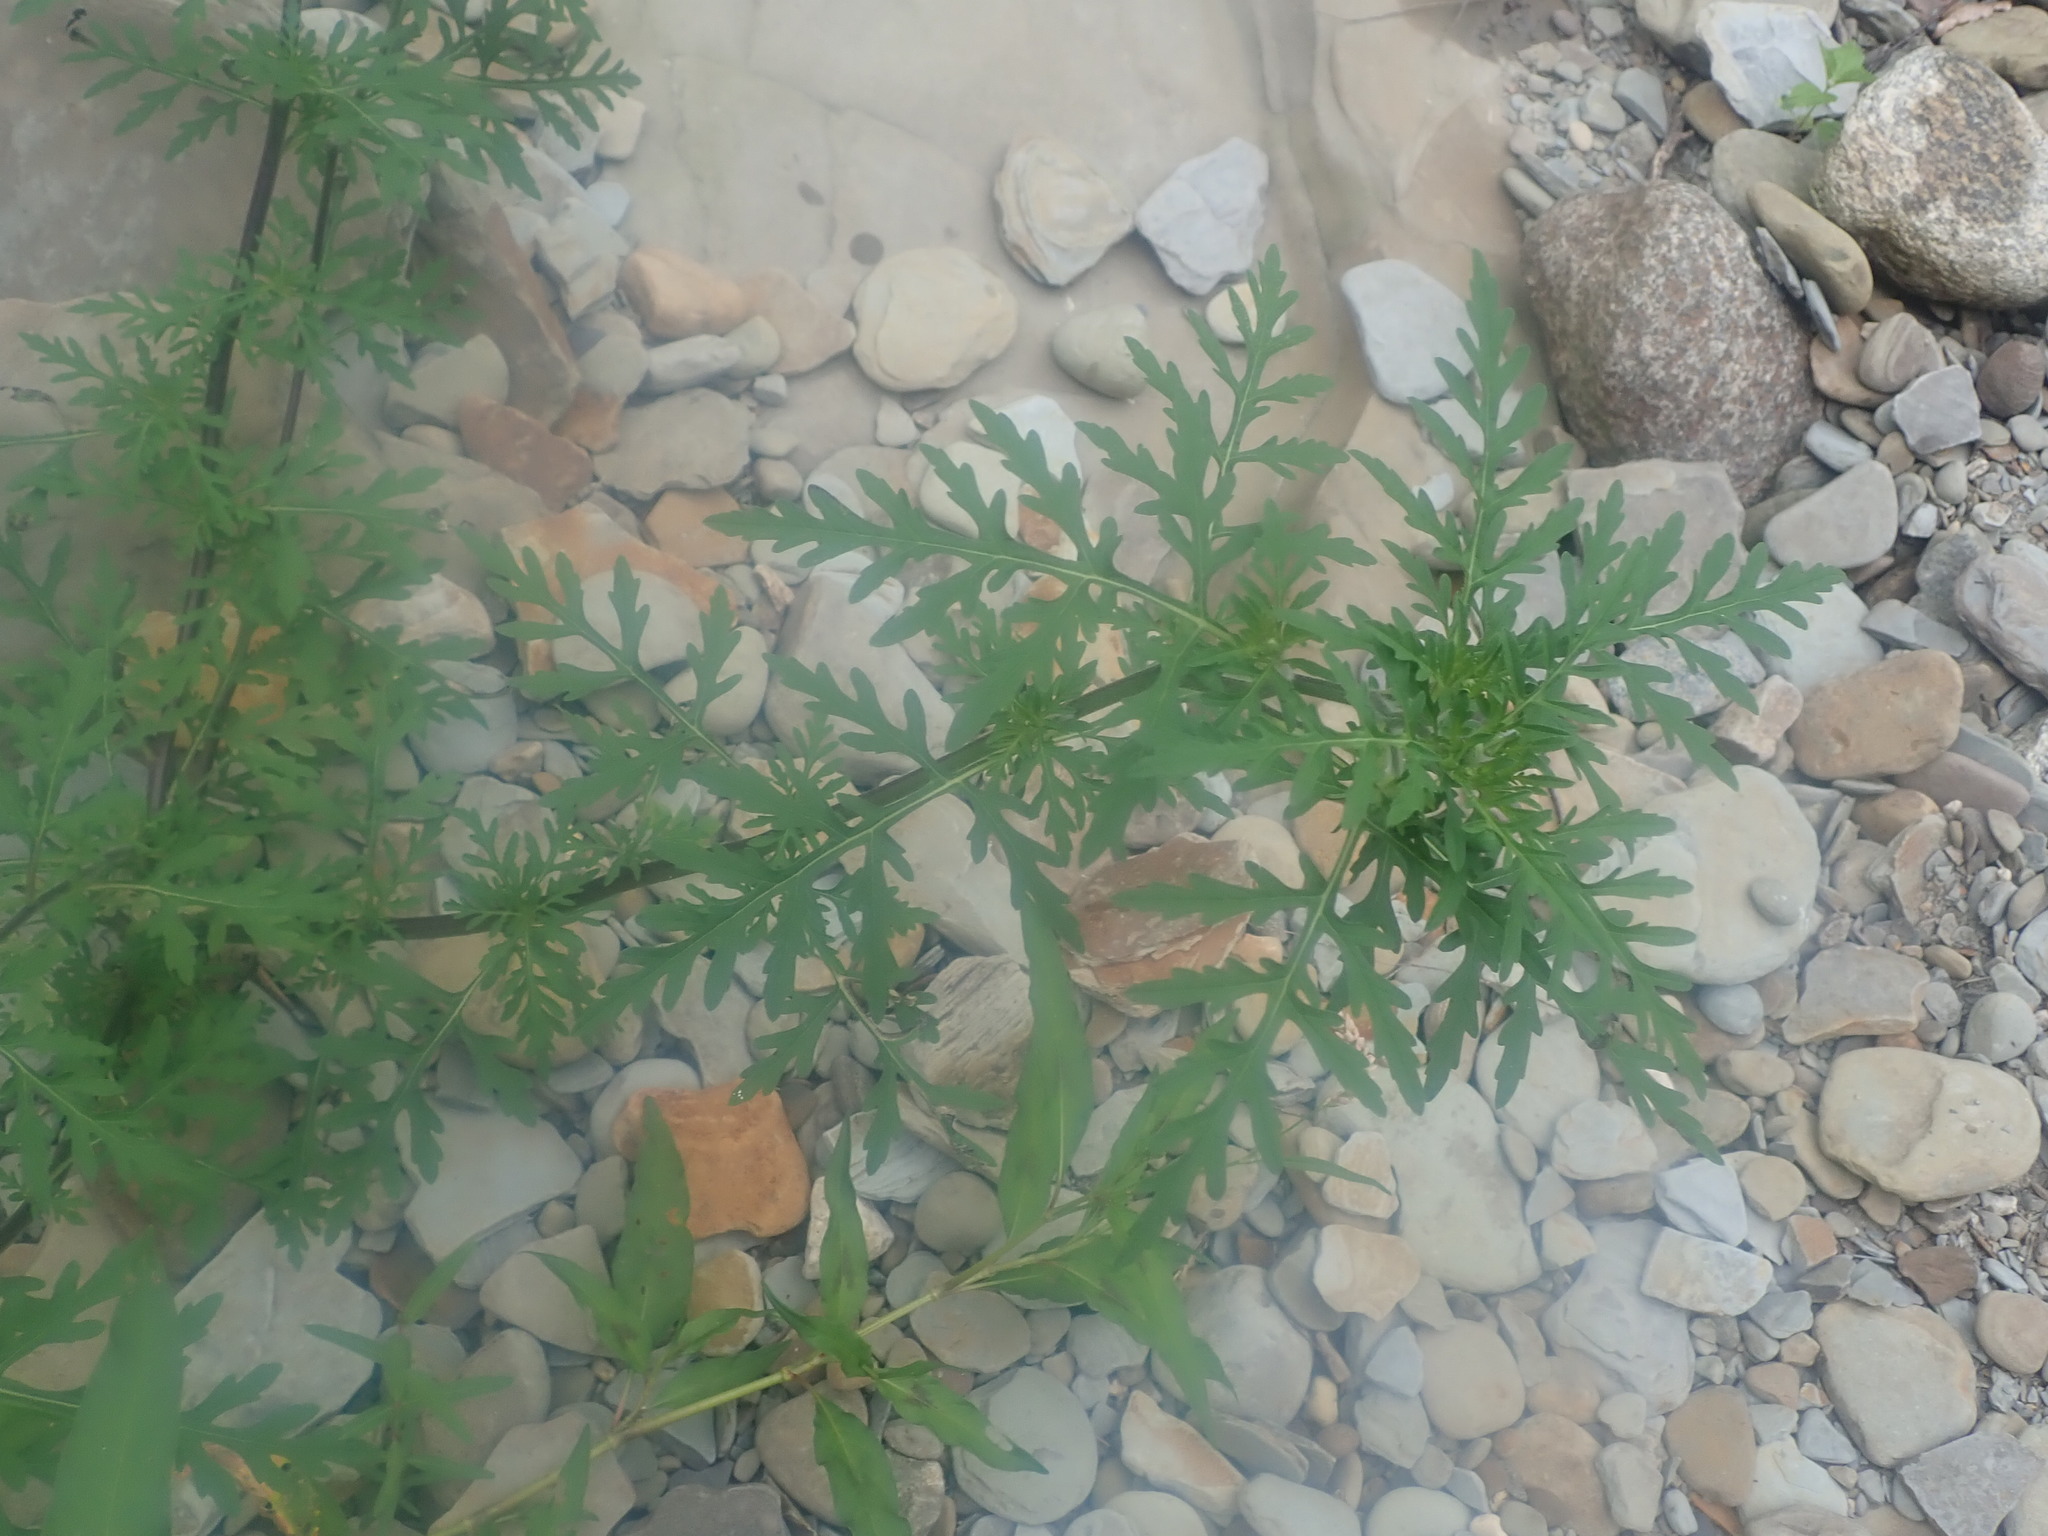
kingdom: Plantae
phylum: Tracheophyta
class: Magnoliopsida
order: Asterales
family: Asteraceae
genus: Ambrosia
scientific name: Ambrosia artemisiifolia
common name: Annual ragweed
